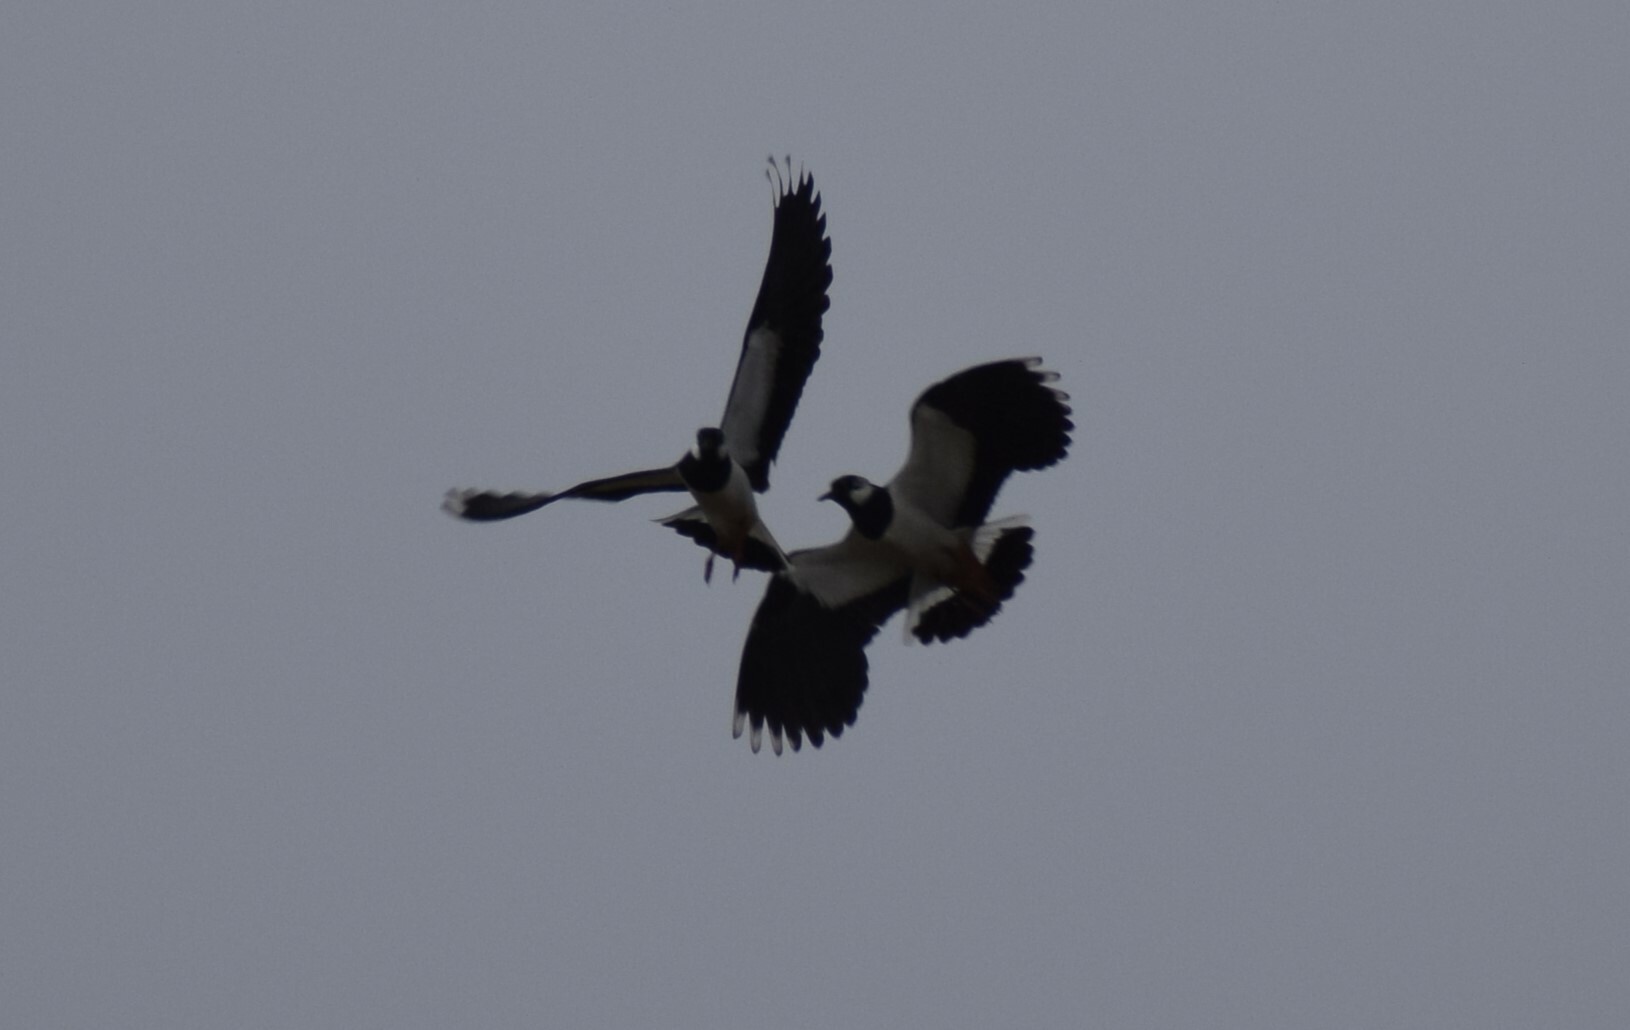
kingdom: Animalia
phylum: Chordata
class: Aves
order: Charadriiformes
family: Charadriidae
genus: Vanellus
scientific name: Vanellus vanellus
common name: Northern lapwing
